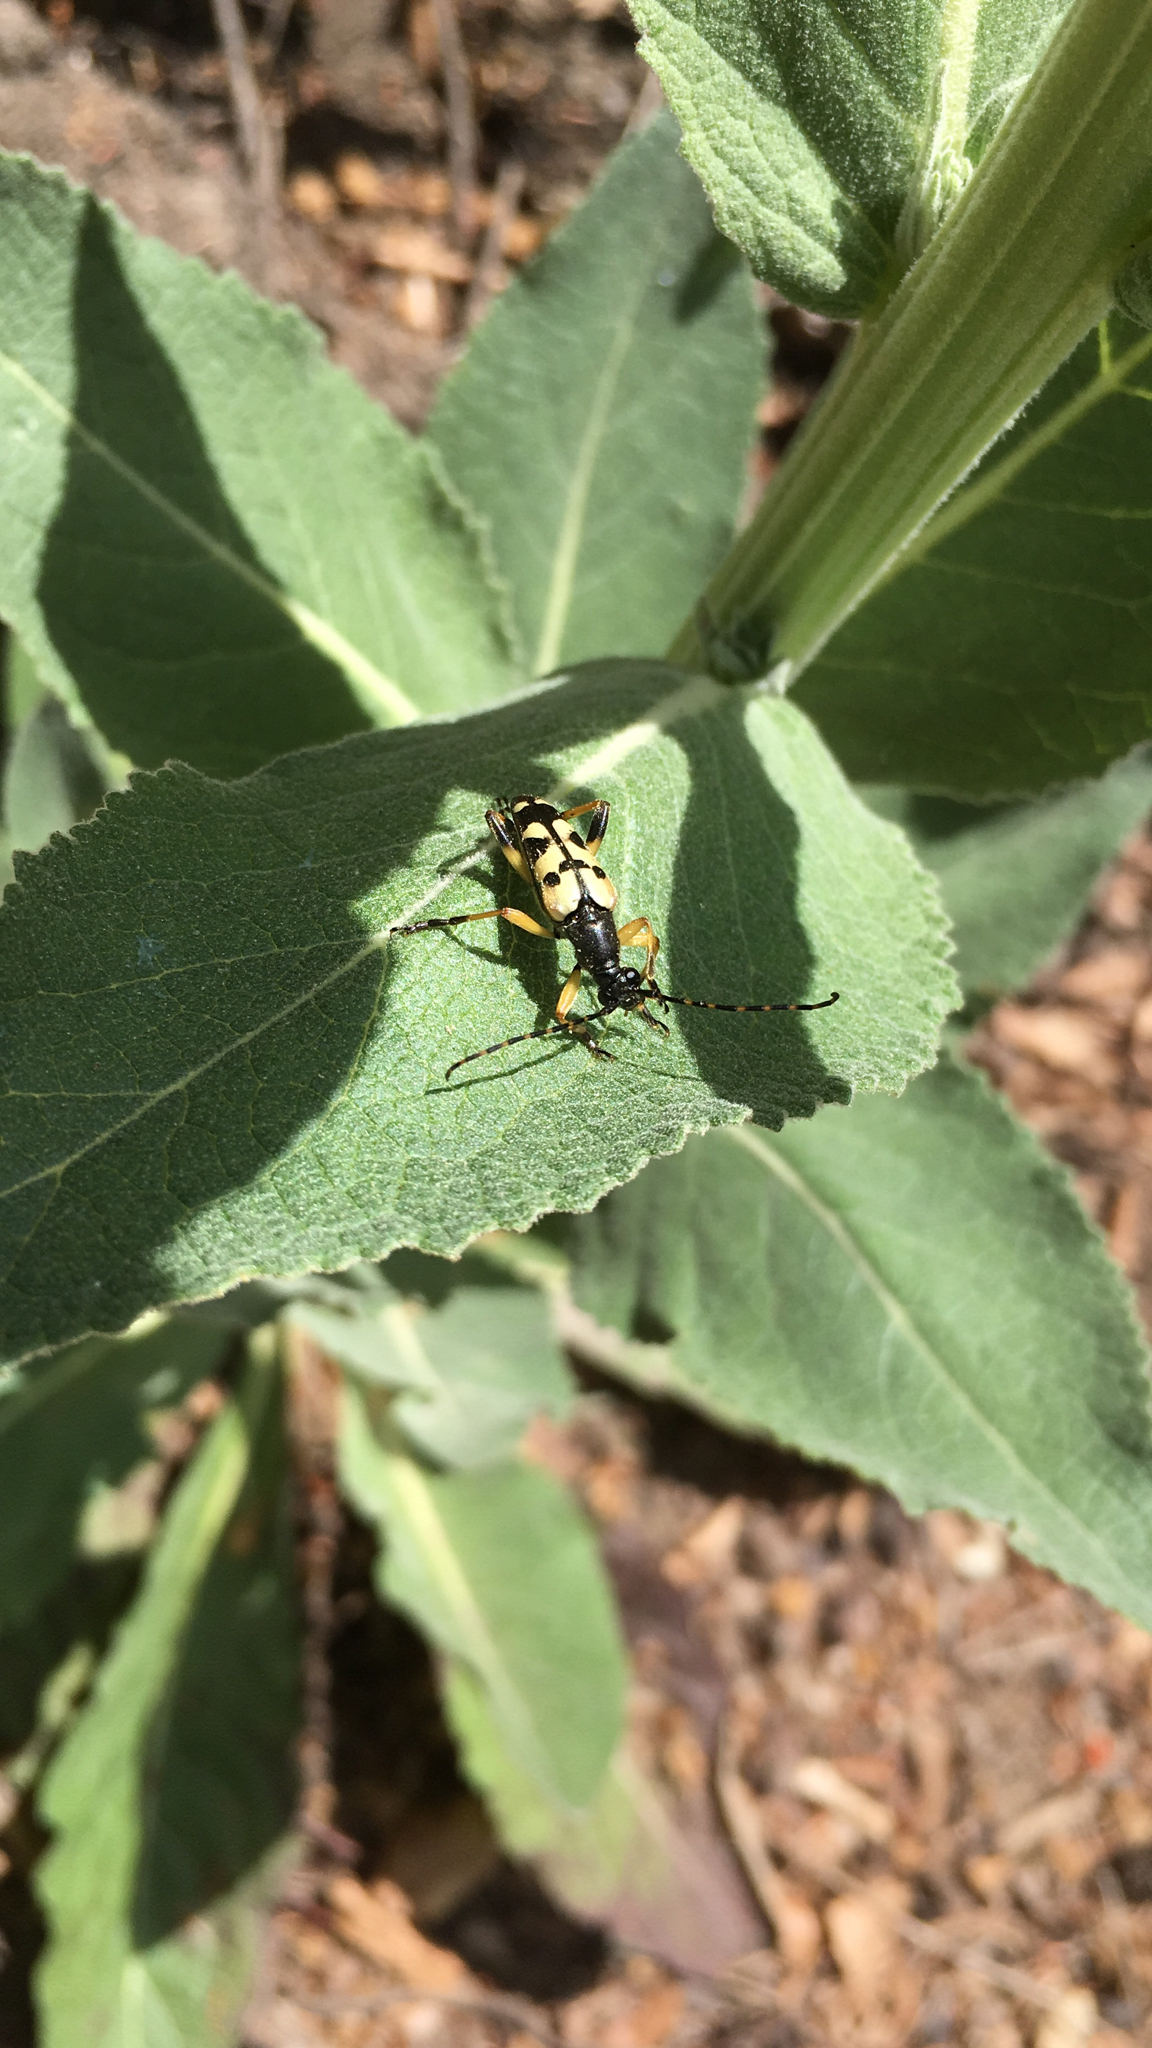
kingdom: Animalia
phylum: Arthropoda
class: Insecta
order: Coleoptera
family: Cerambycidae
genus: Rutpela
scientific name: Rutpela maculata
